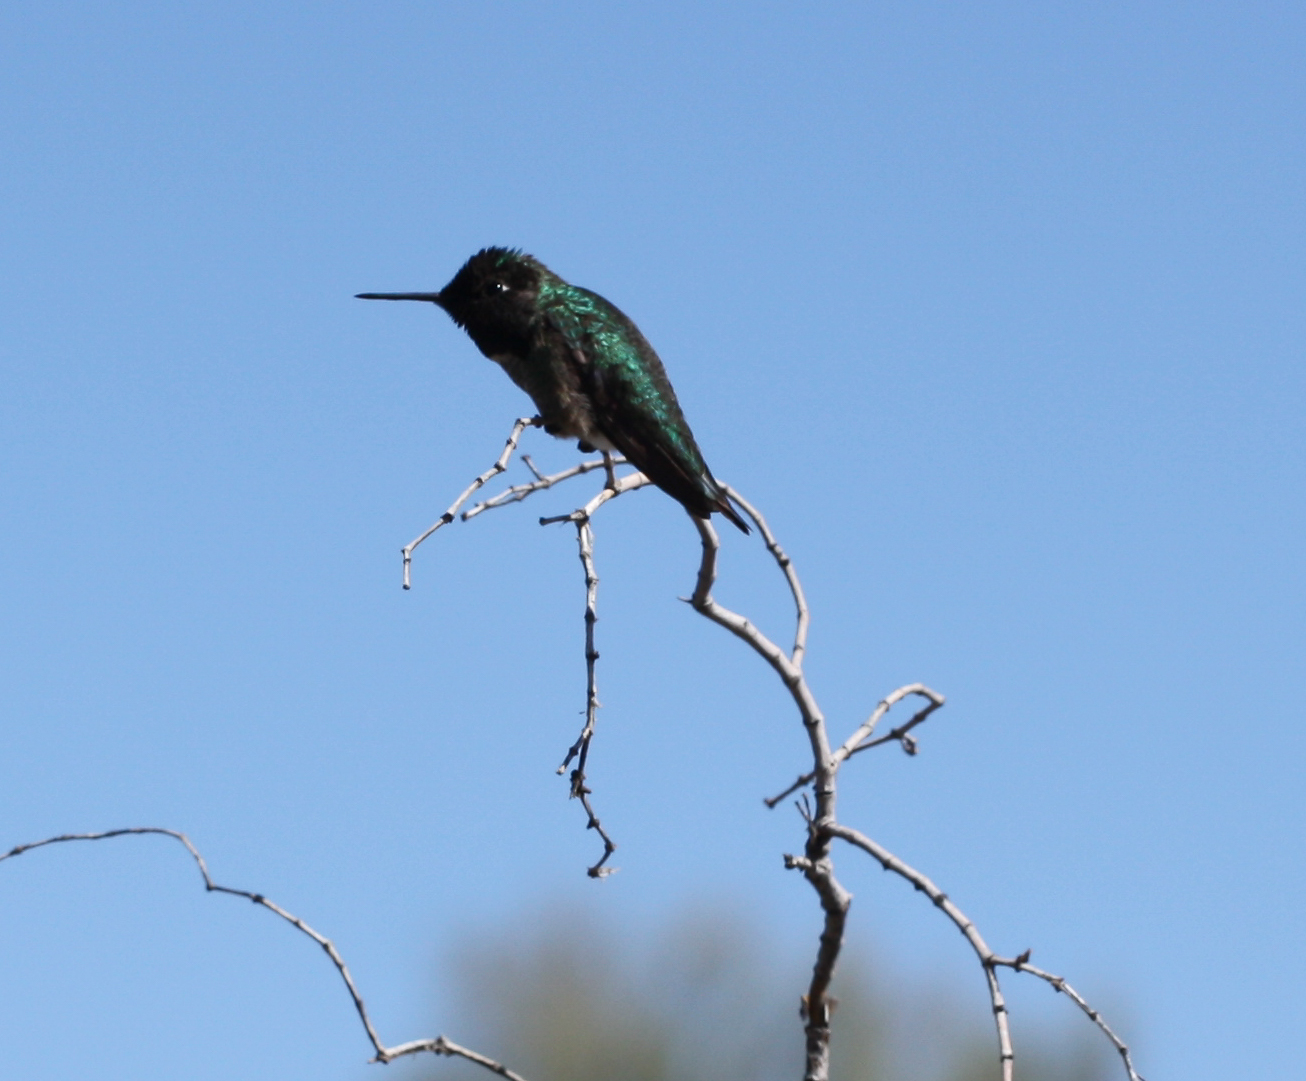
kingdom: Animalia
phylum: Chordata
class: Aves
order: Apodiformes
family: Trochilidae
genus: Calypte
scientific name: Calypte anna
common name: Anna's hummingbird
